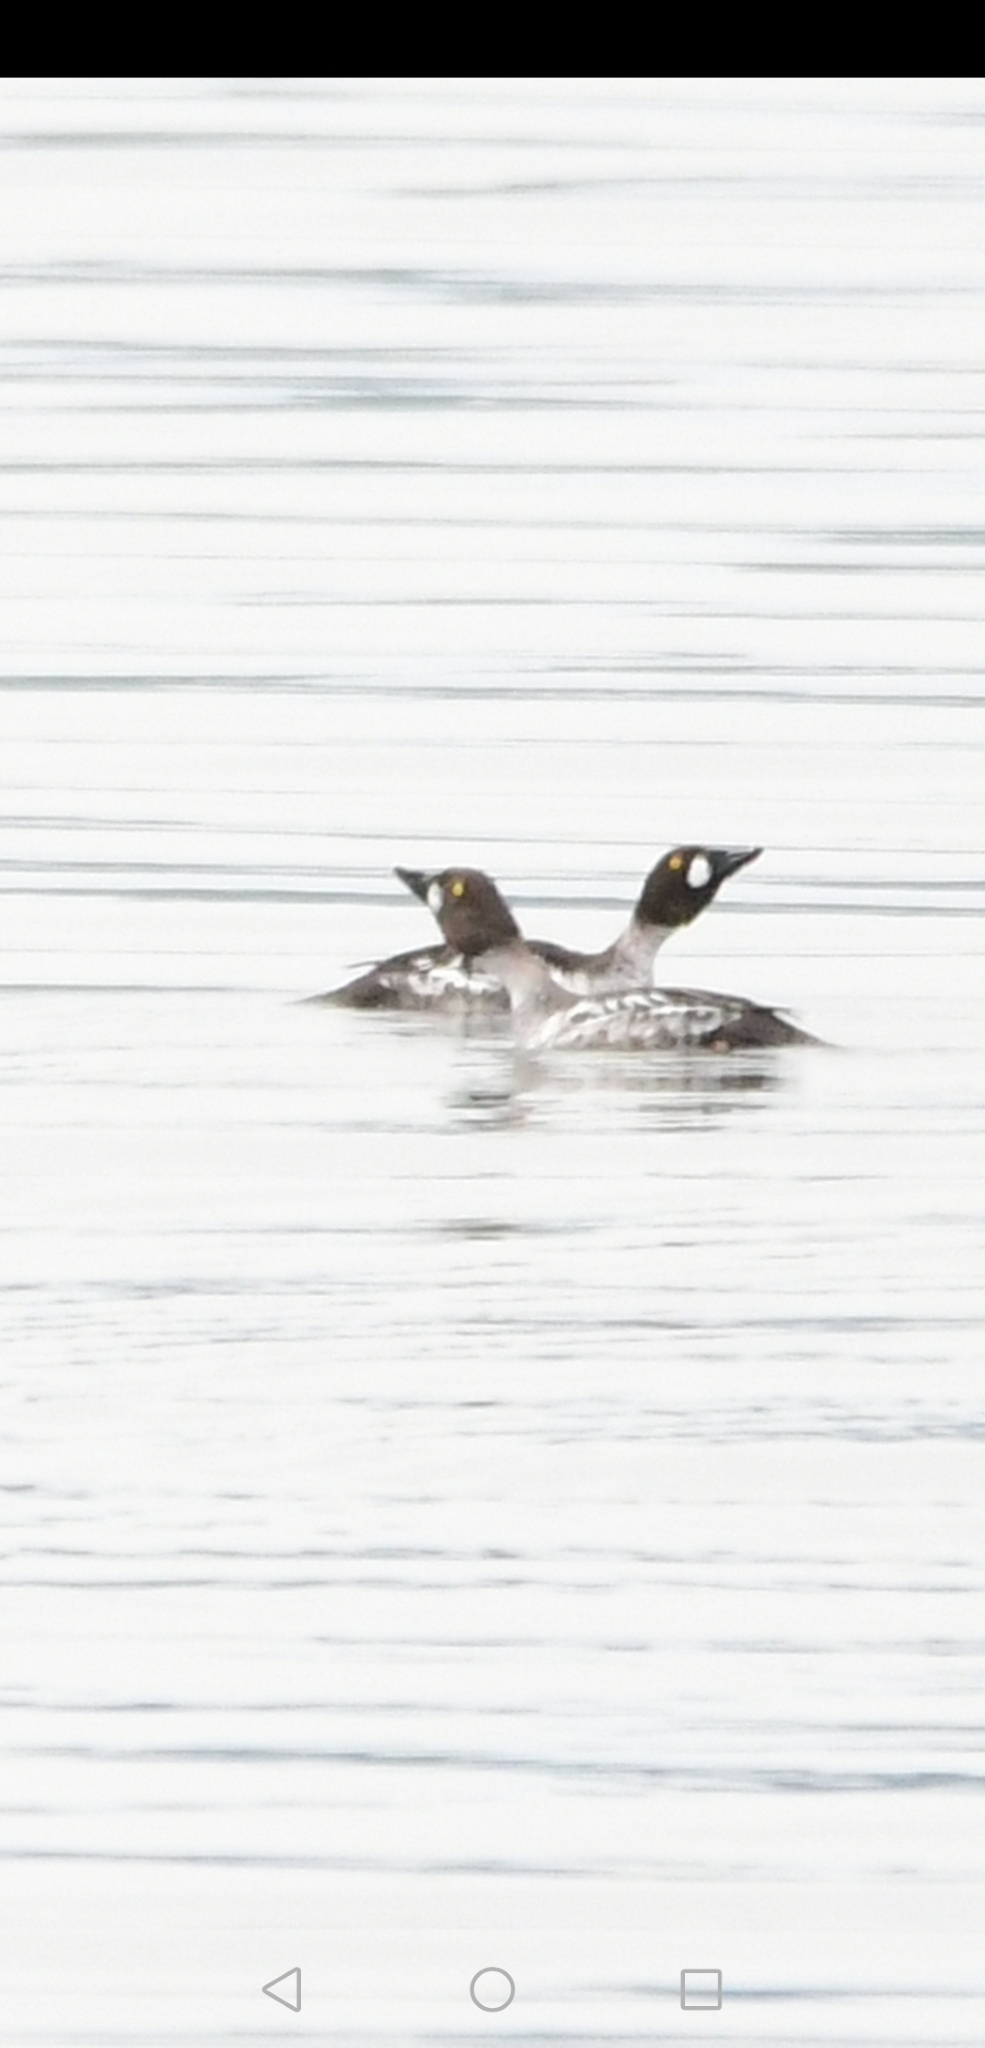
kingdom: Animalia
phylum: Chordata
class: Aves
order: Anseriformes
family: Anatidae
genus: Bucephala
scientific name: Bucephala clangula
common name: Common goldeneye
